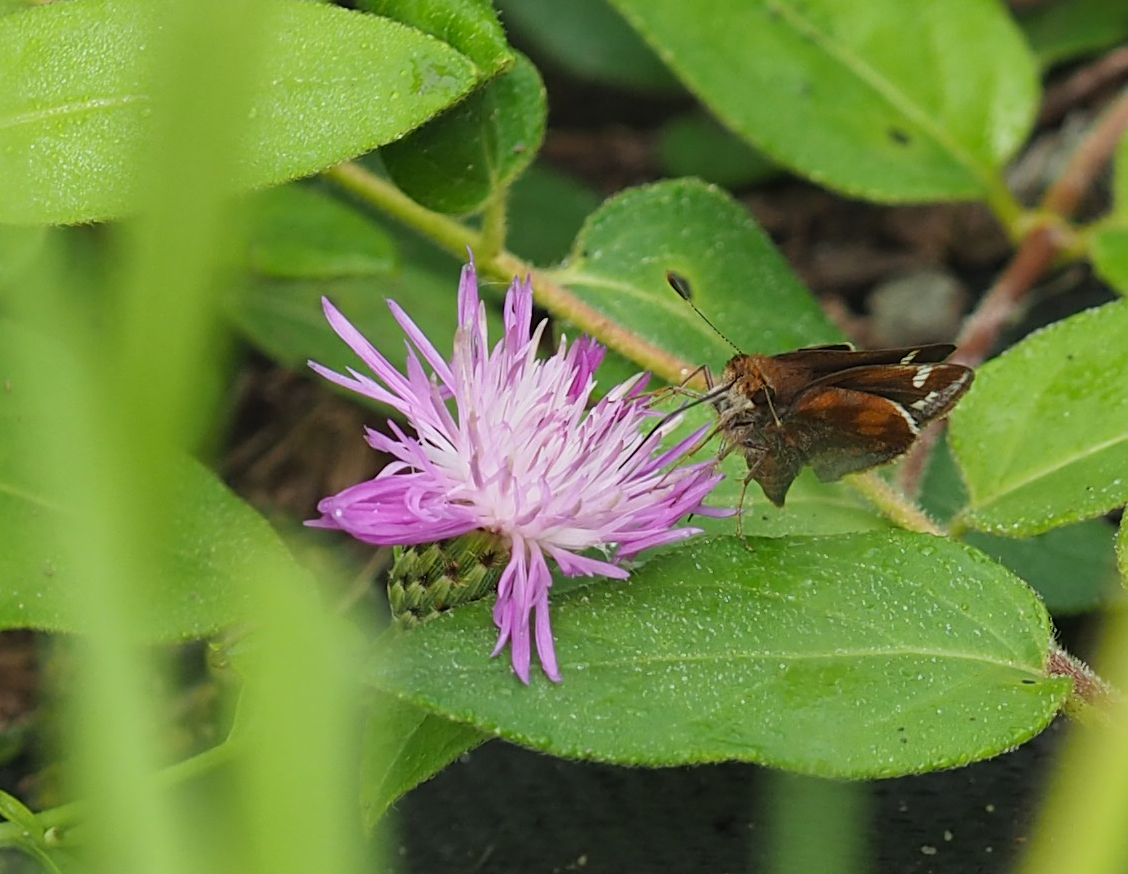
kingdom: Animalia
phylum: Arthropoda
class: Insecta
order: Lepidoptera
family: Hesperiidae
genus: Lon
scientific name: Lon zabulon
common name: Zabulon skipper
